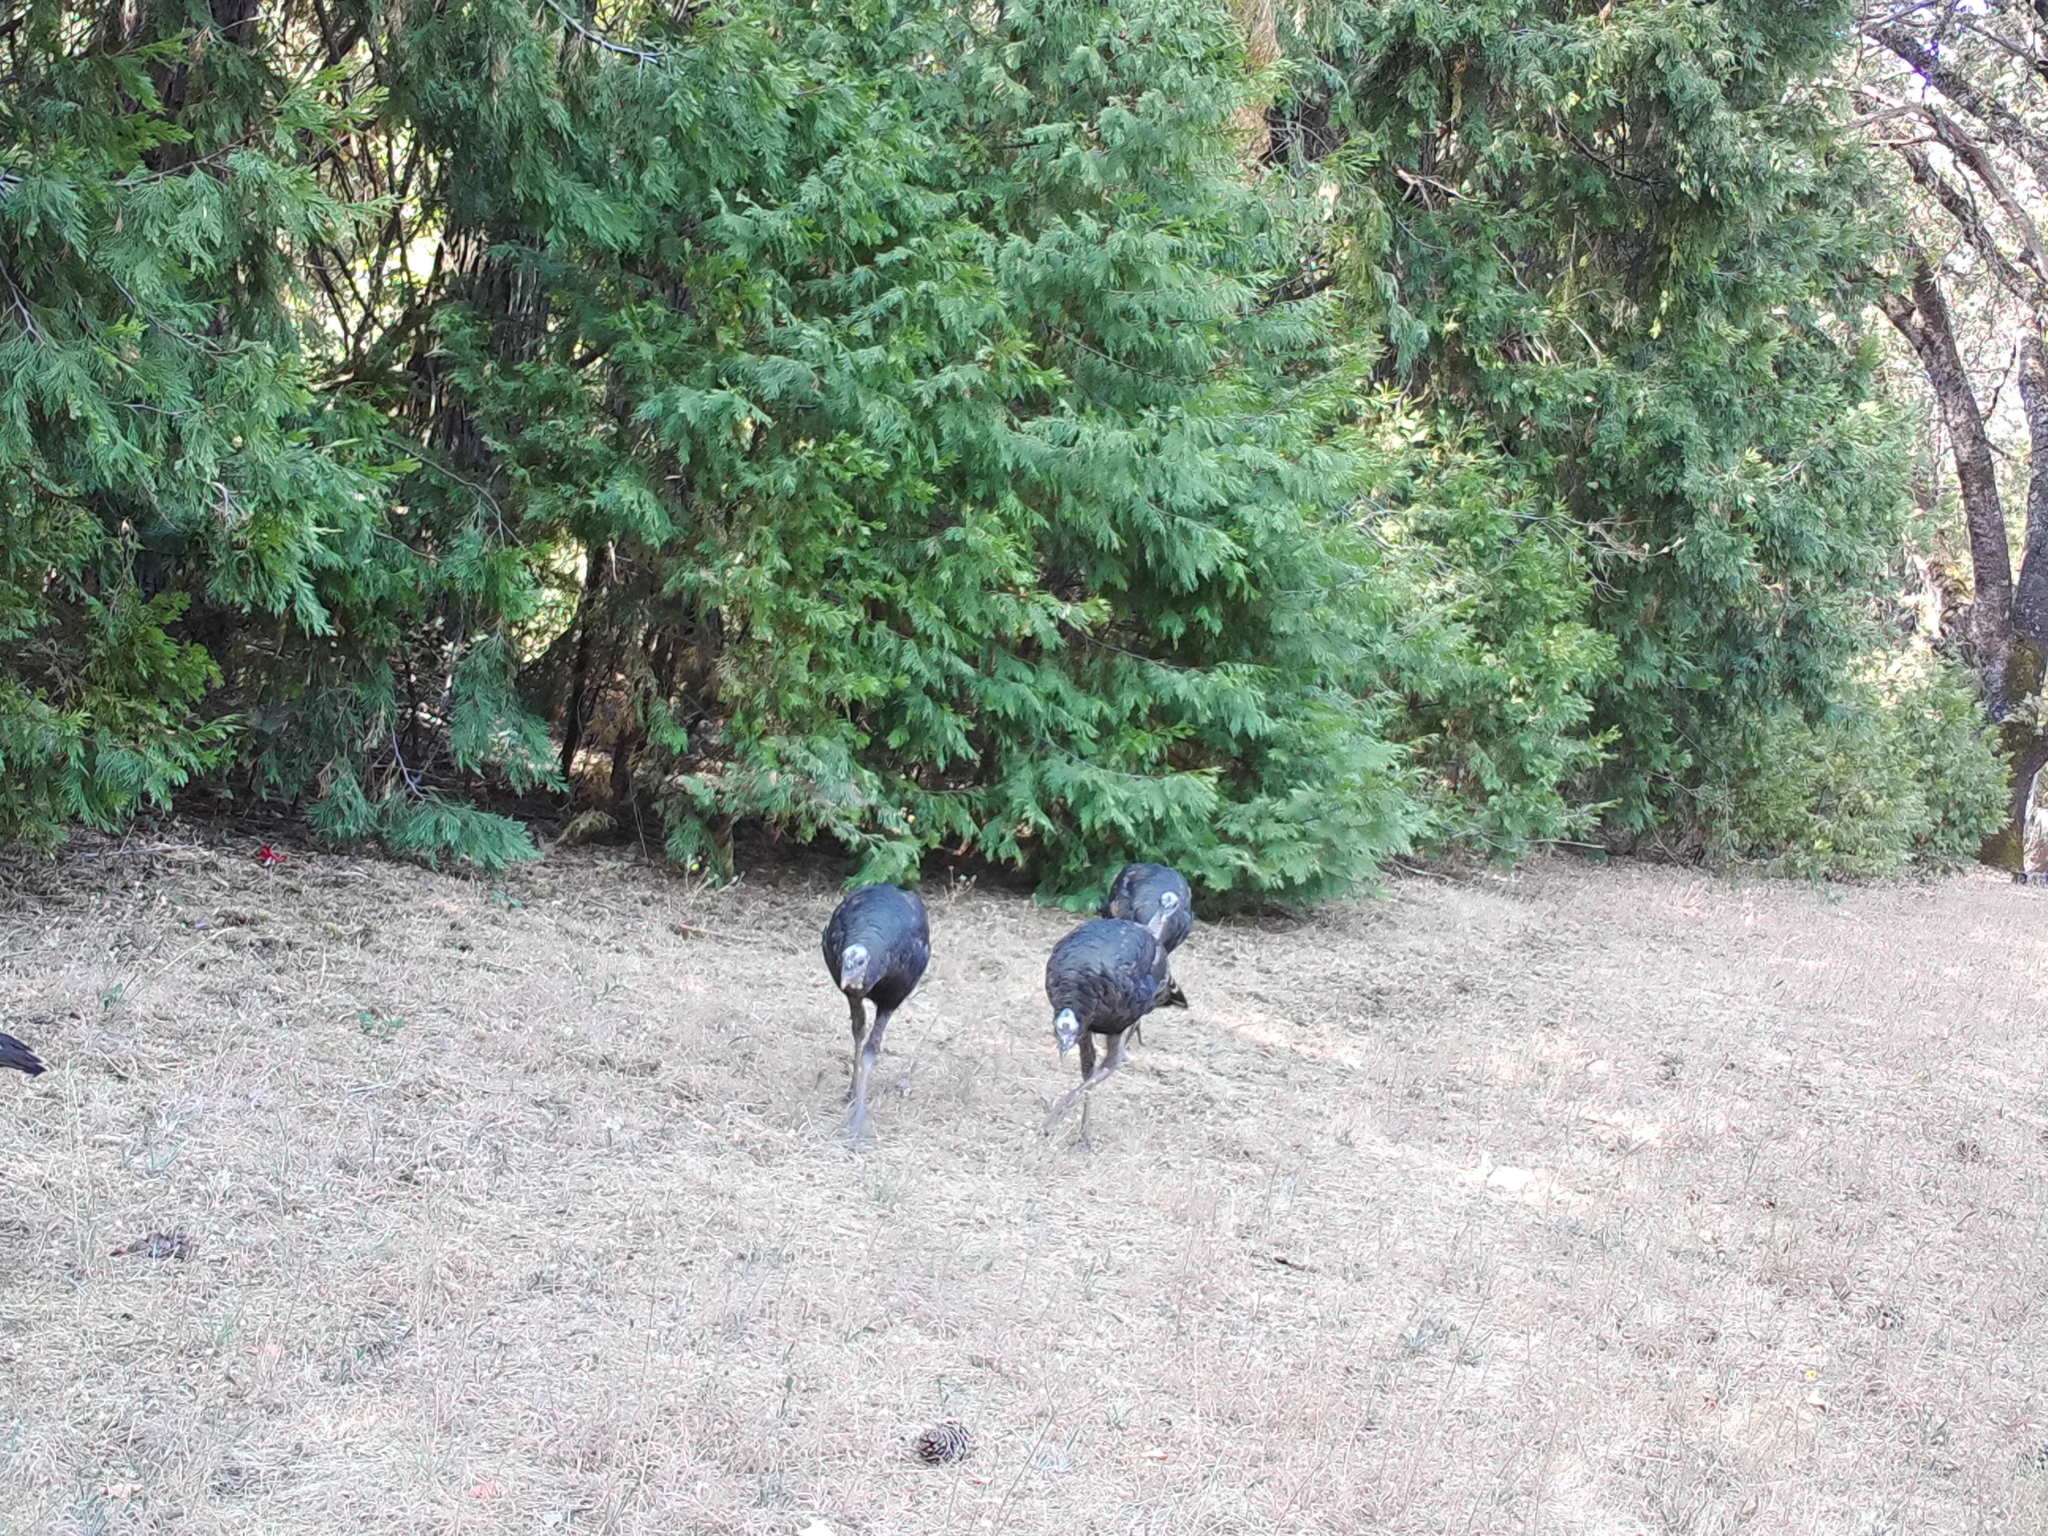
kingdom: Animalia
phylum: Chordata
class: Aves
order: Galliformes
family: Phasianidae
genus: Meleagris
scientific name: Meleagris gallopavo
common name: Wild turkey
